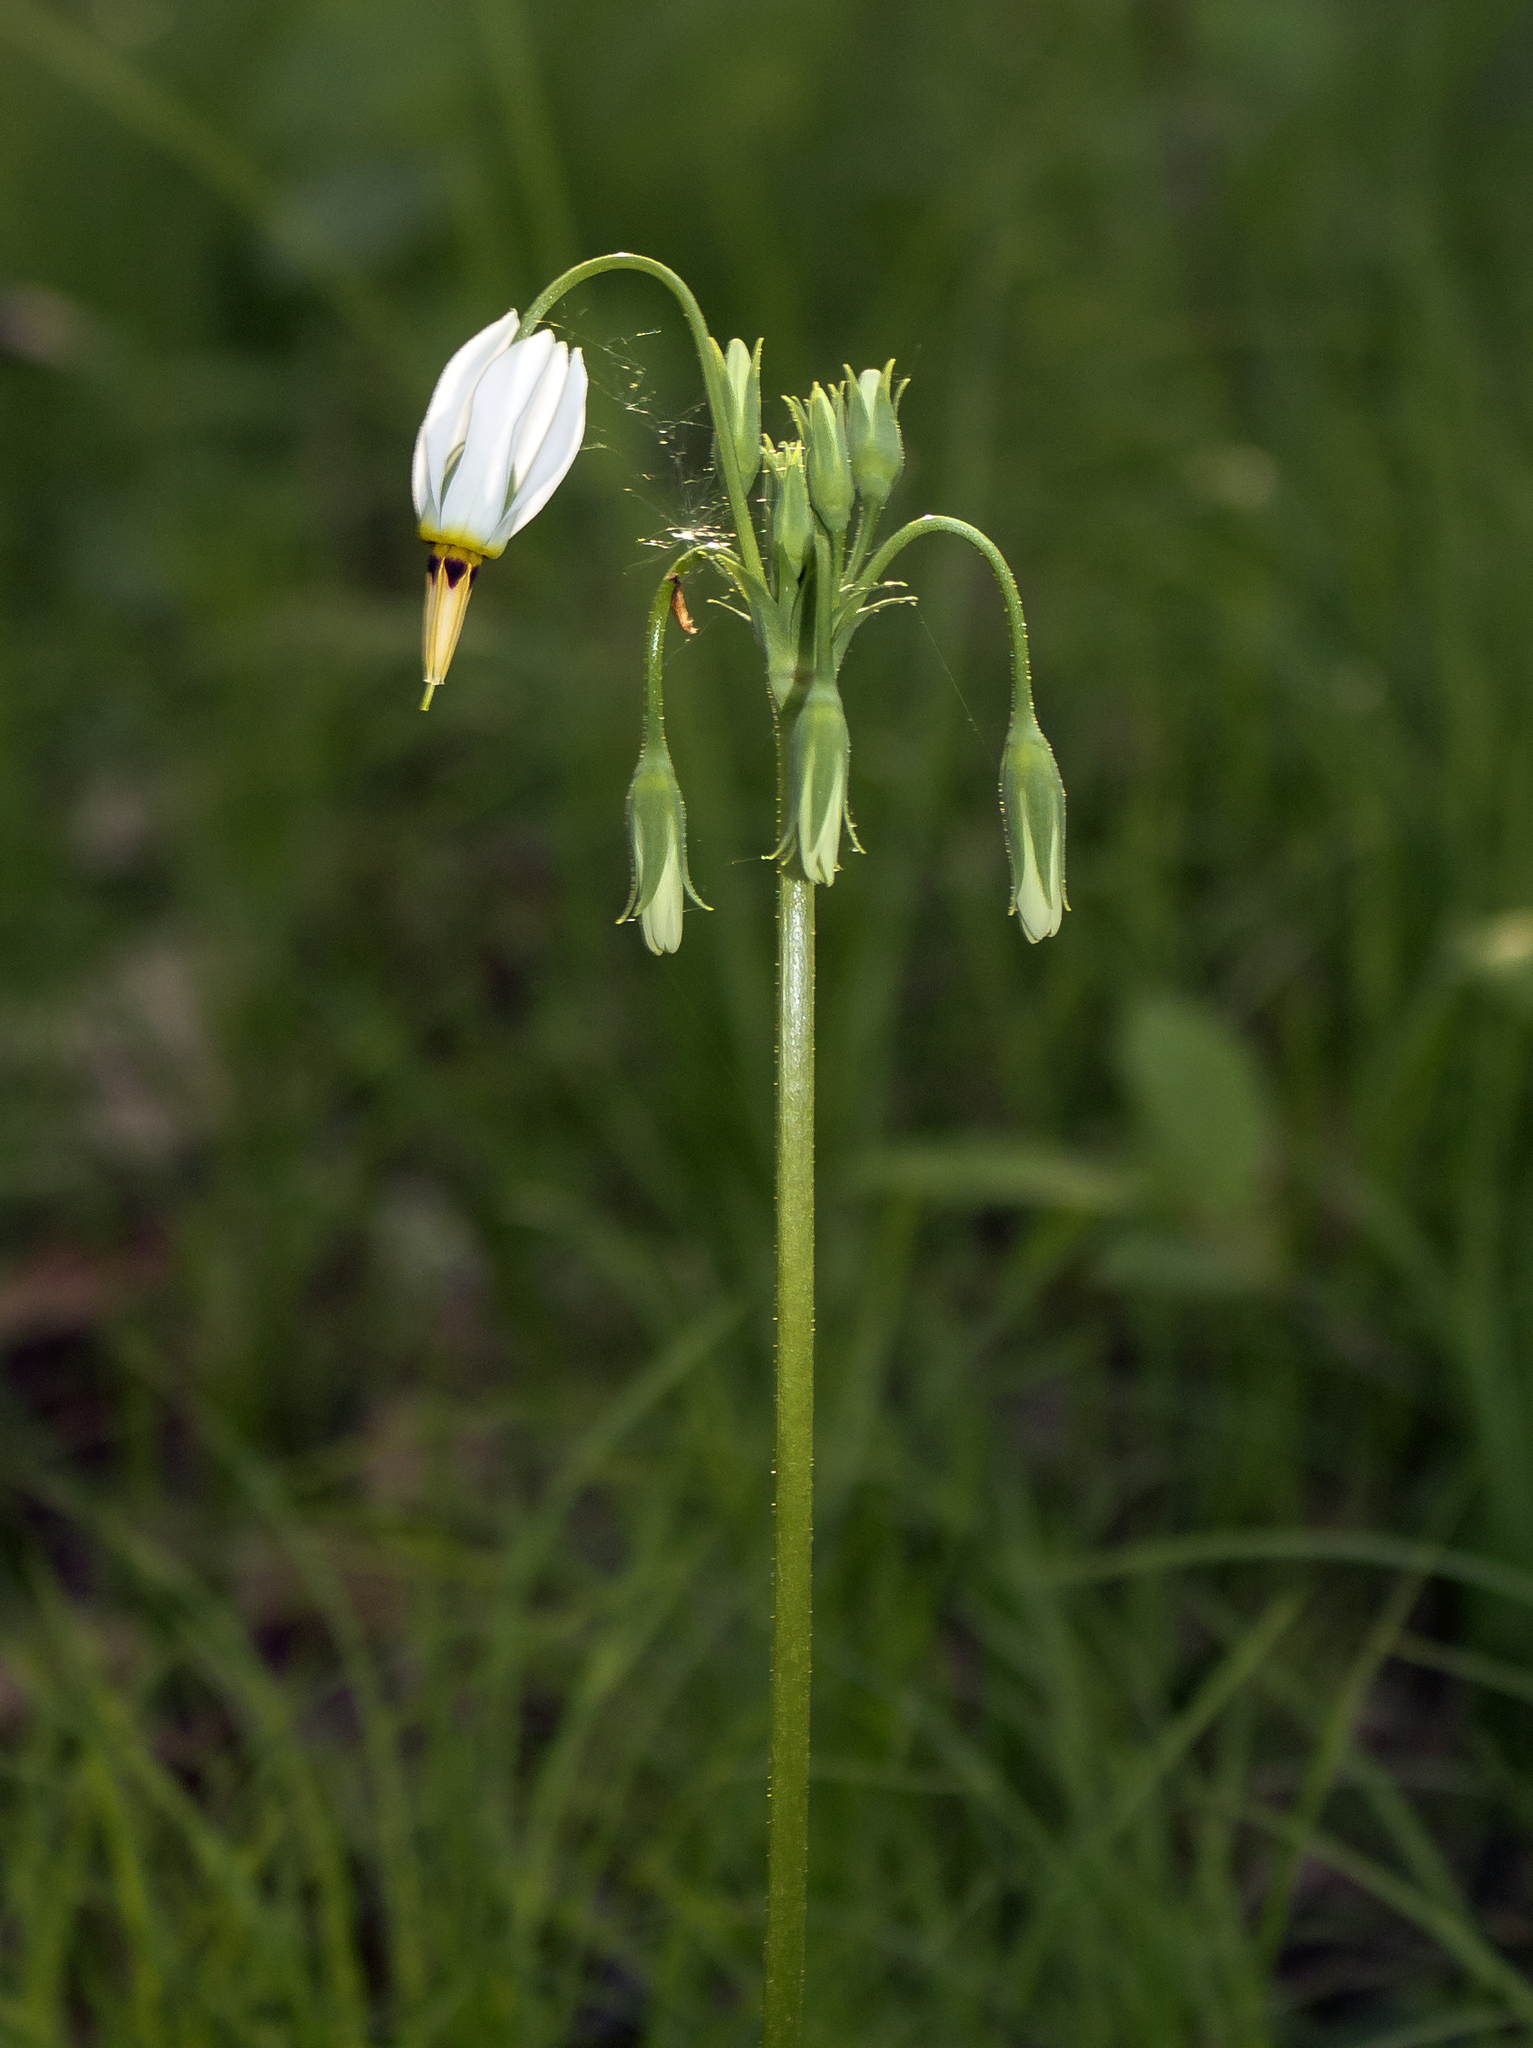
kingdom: Plantae
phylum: Tracheophyta
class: Magnoliopsida
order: Ericales
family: Primulaceae
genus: Dodecatheon
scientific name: Dodecatheon meadia
